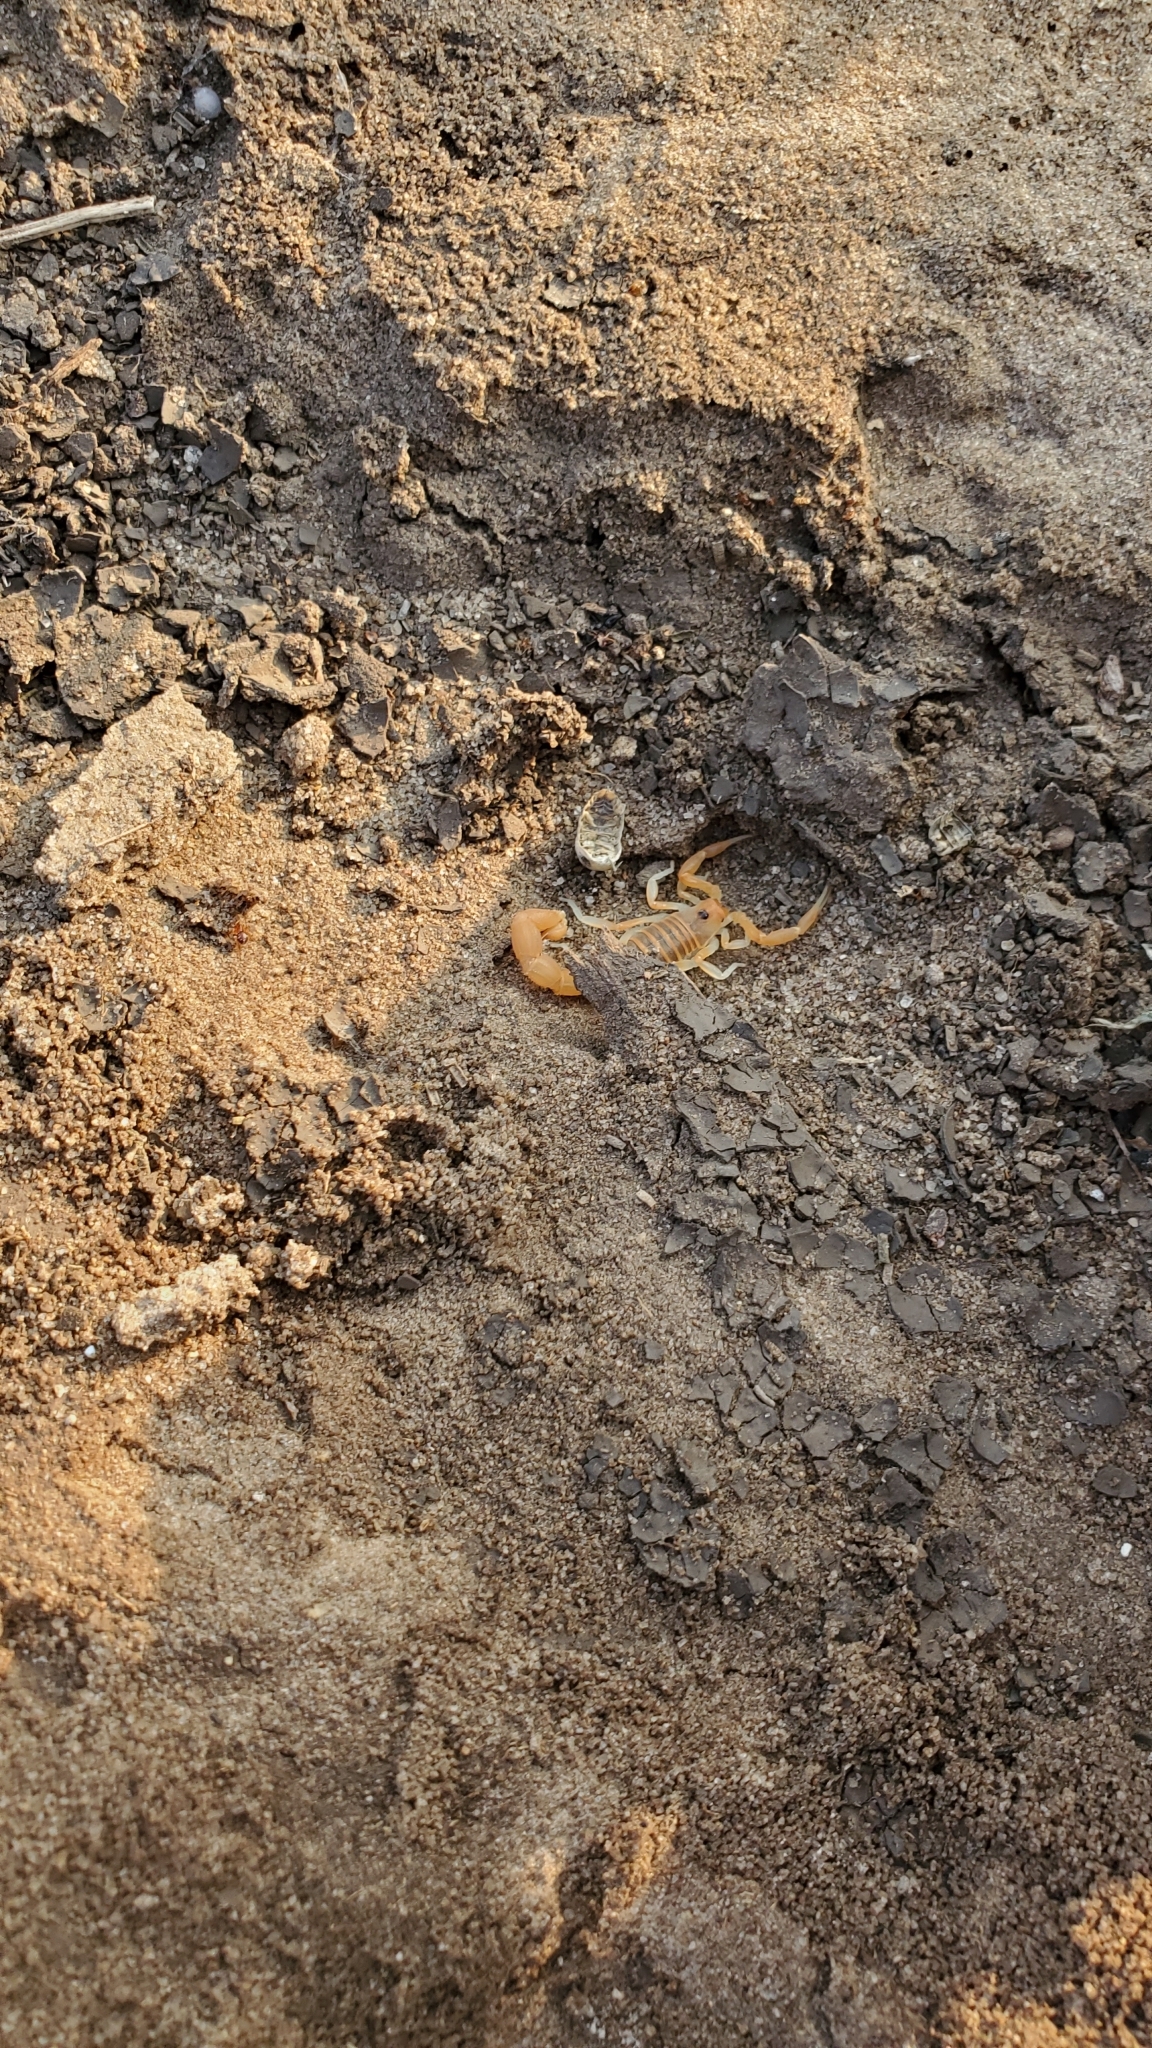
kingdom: Animalia
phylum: Arthropoda
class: Arachnida
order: Scorpiones
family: Buthidae
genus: Parabuthus
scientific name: Parabuthus pallidus
